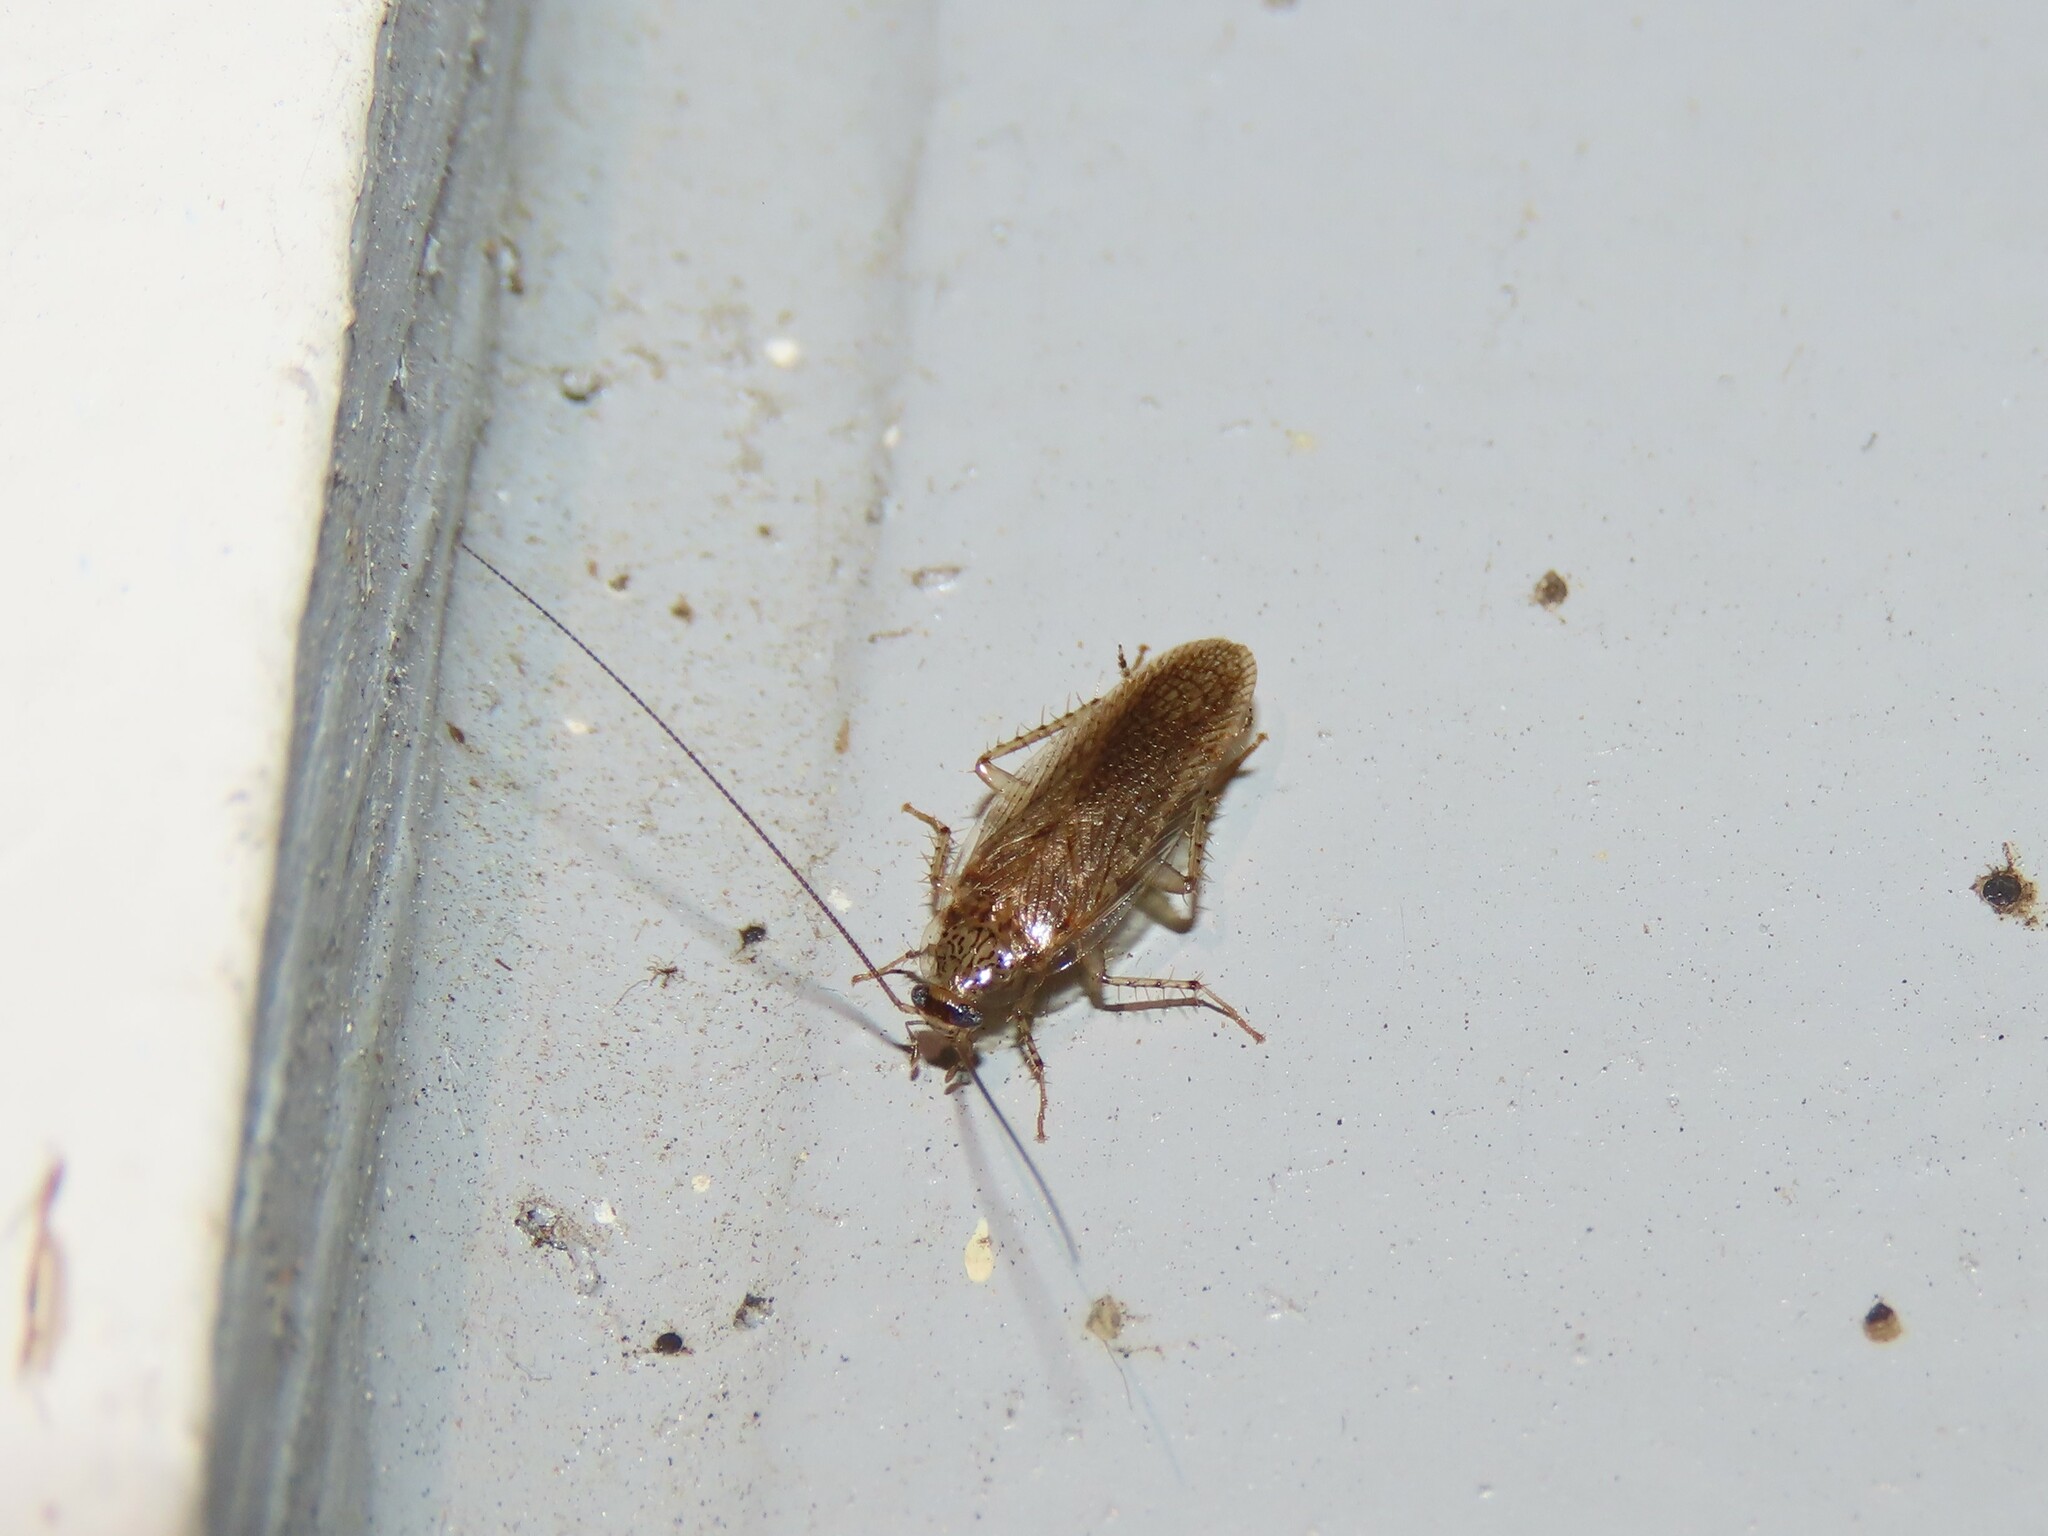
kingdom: Animalia
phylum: Arthropoda
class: Insecta
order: Blattodea
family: Ectobiidae
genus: Neoblattella
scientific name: Neoblattella detersa
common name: Wood cockroach
